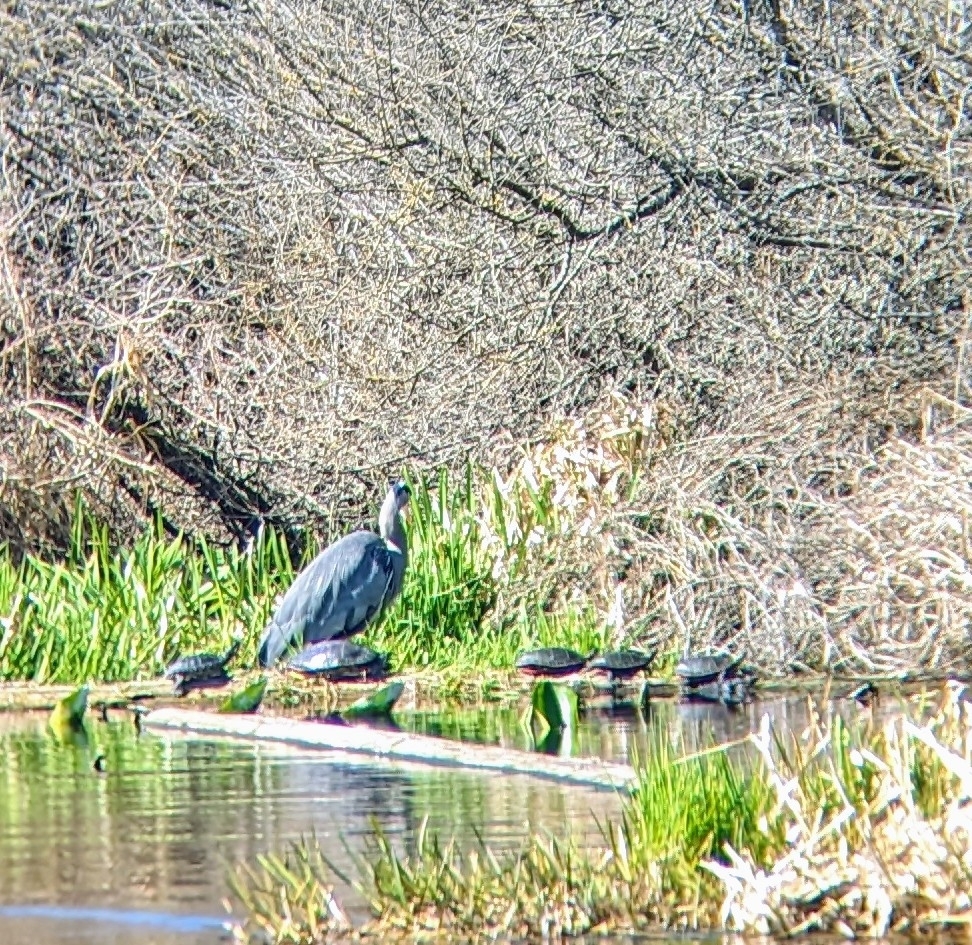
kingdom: Animalia
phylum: Chordata
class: Testudines
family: Emydidae
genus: Chrysemys
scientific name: Chrysemys picta
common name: Painted turtle
